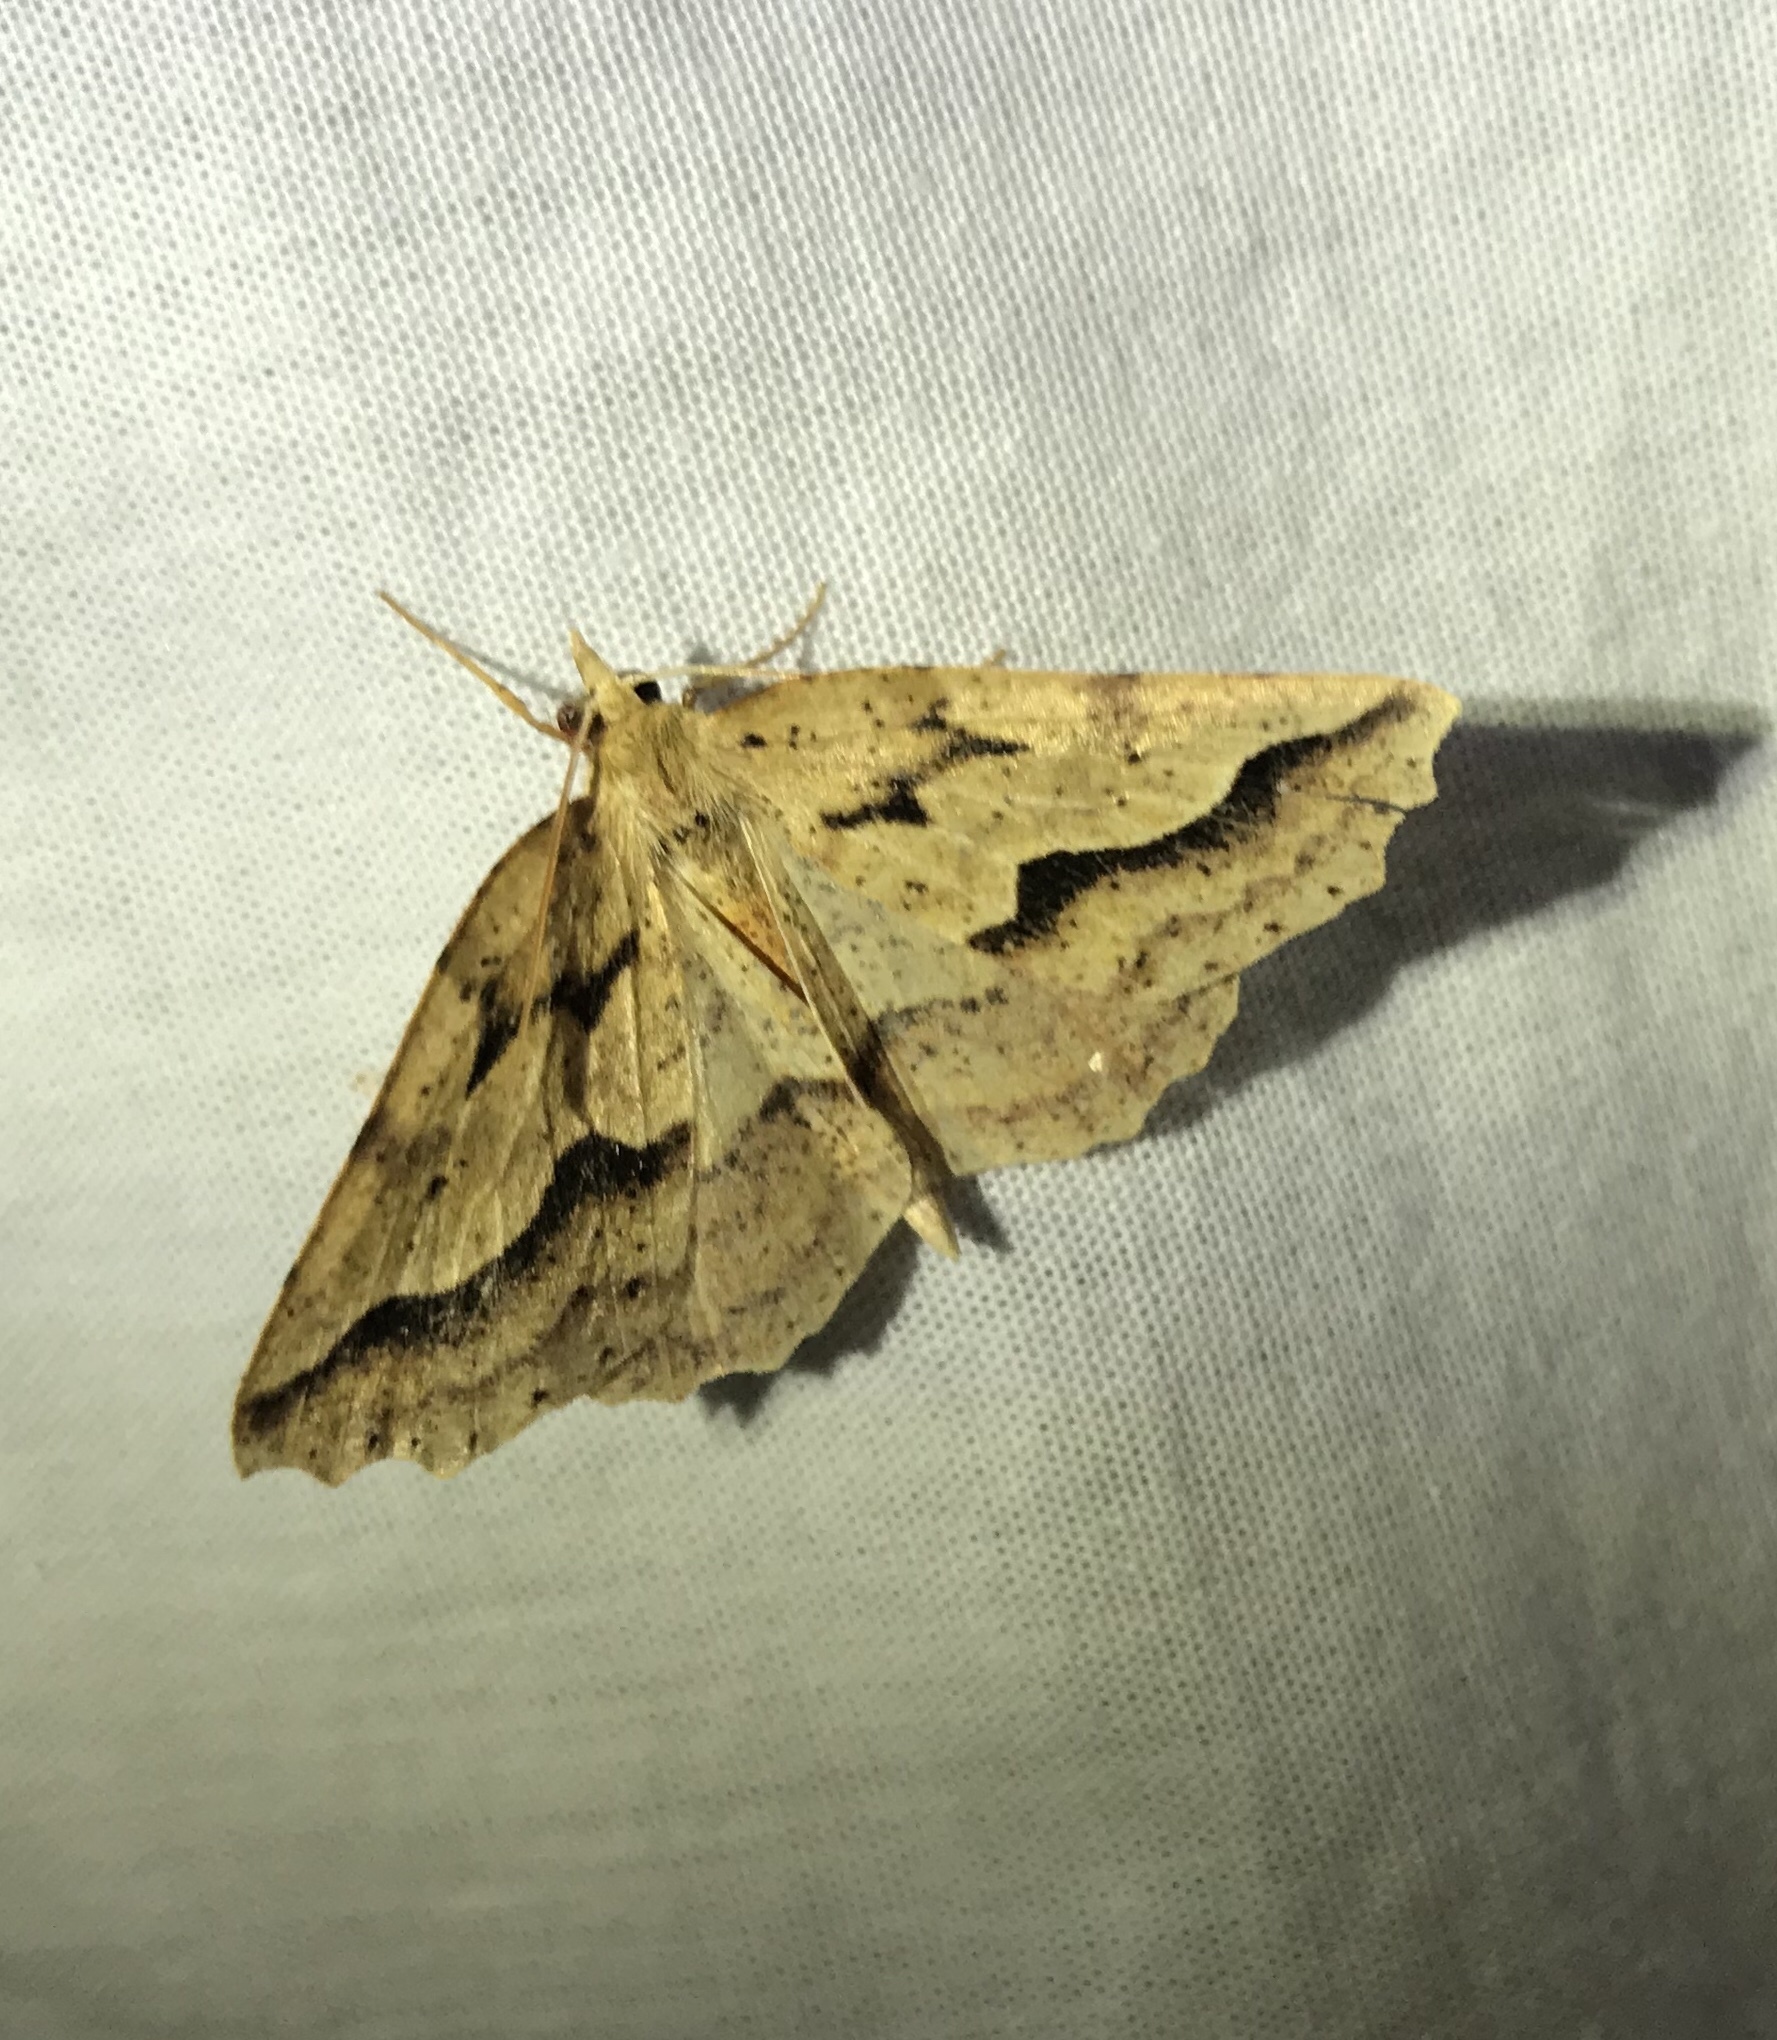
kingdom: Animalia
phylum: Arthropoda
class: Insecta
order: Lepidoptera
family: Geometridae
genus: Ischalis
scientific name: Ischalis variabilis
